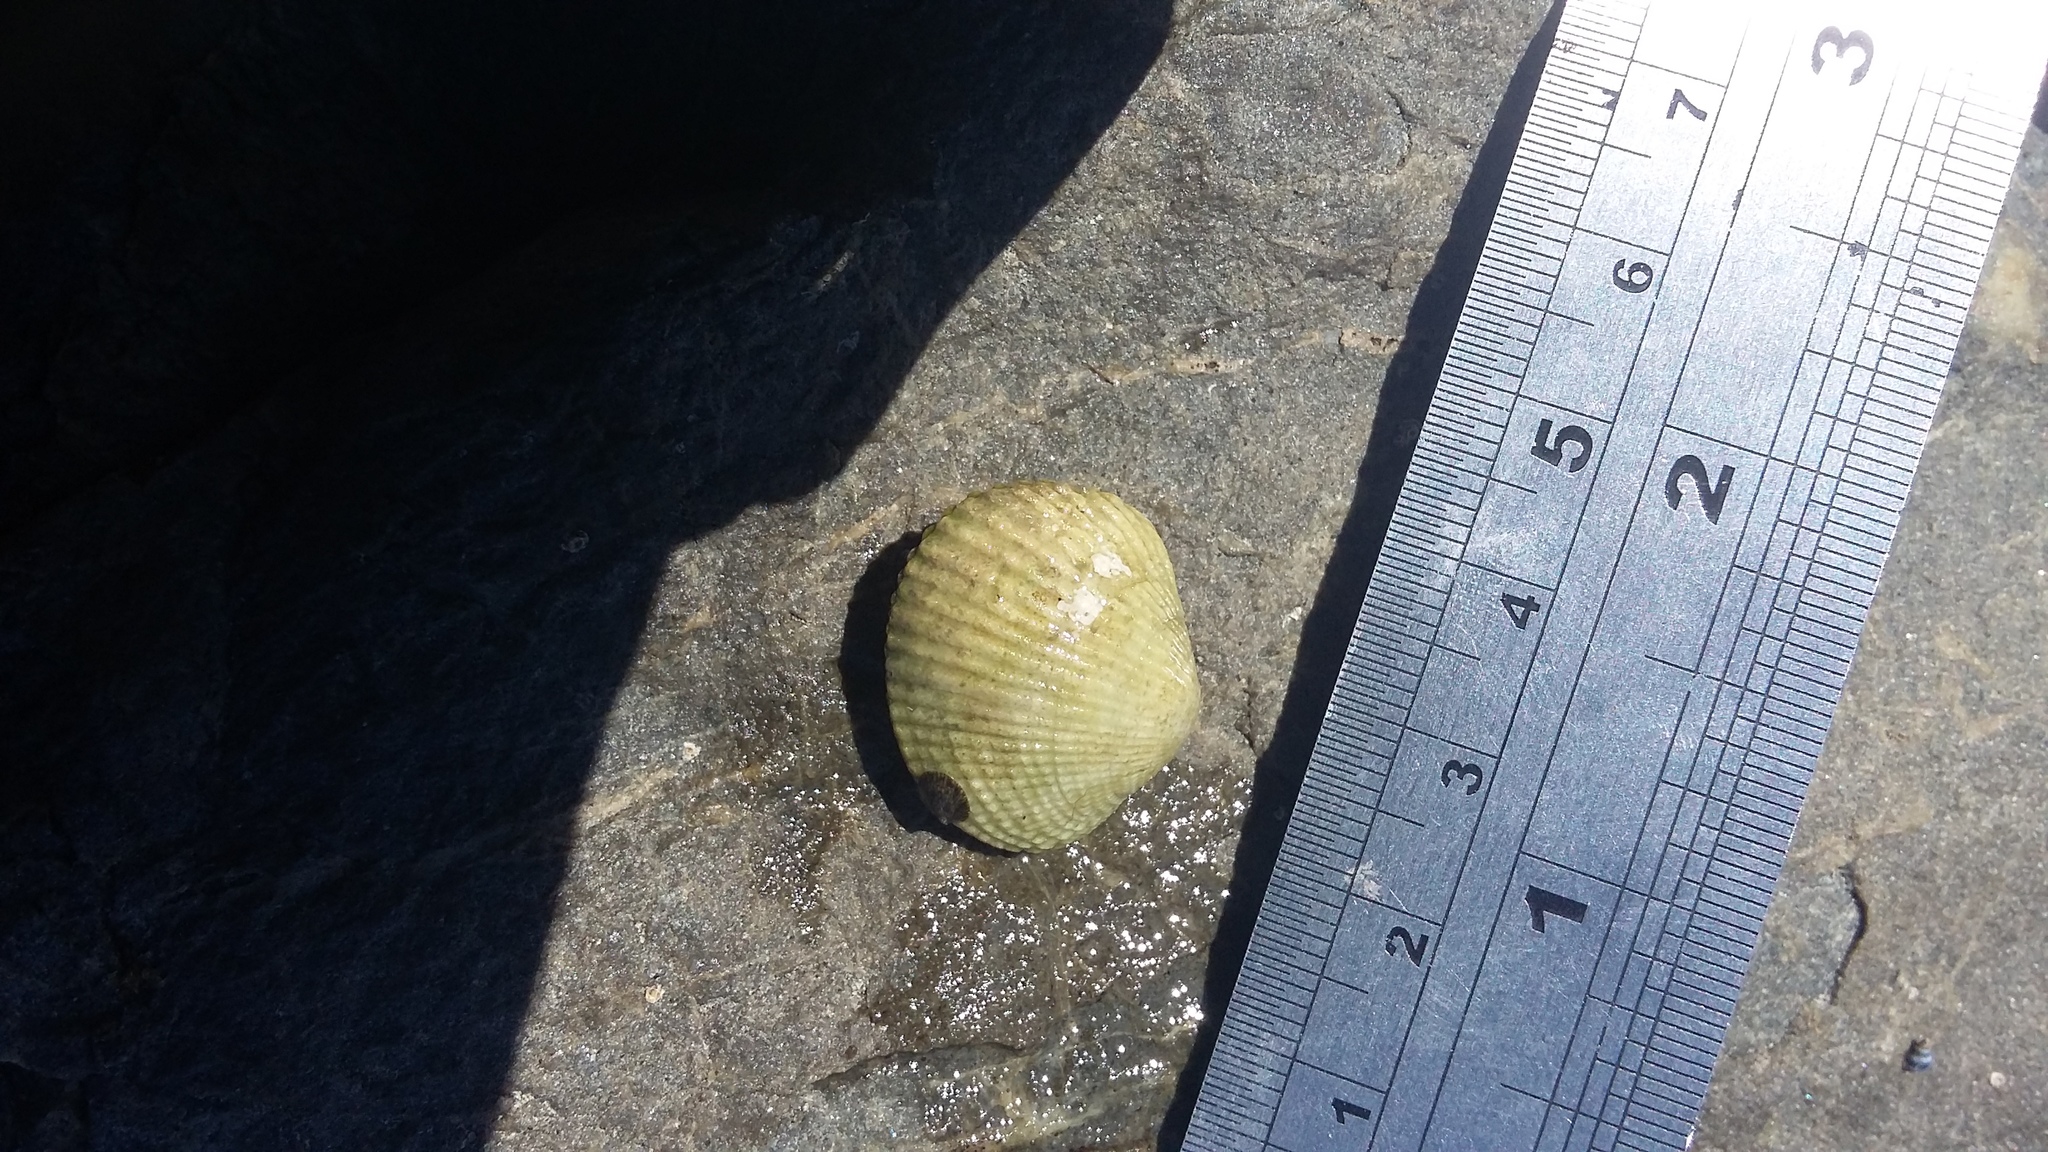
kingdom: Animalia
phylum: Mollusca
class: Bivalvia
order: Venerida
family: Veneridae
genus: Leukoma
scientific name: Leukoma crassicosta
